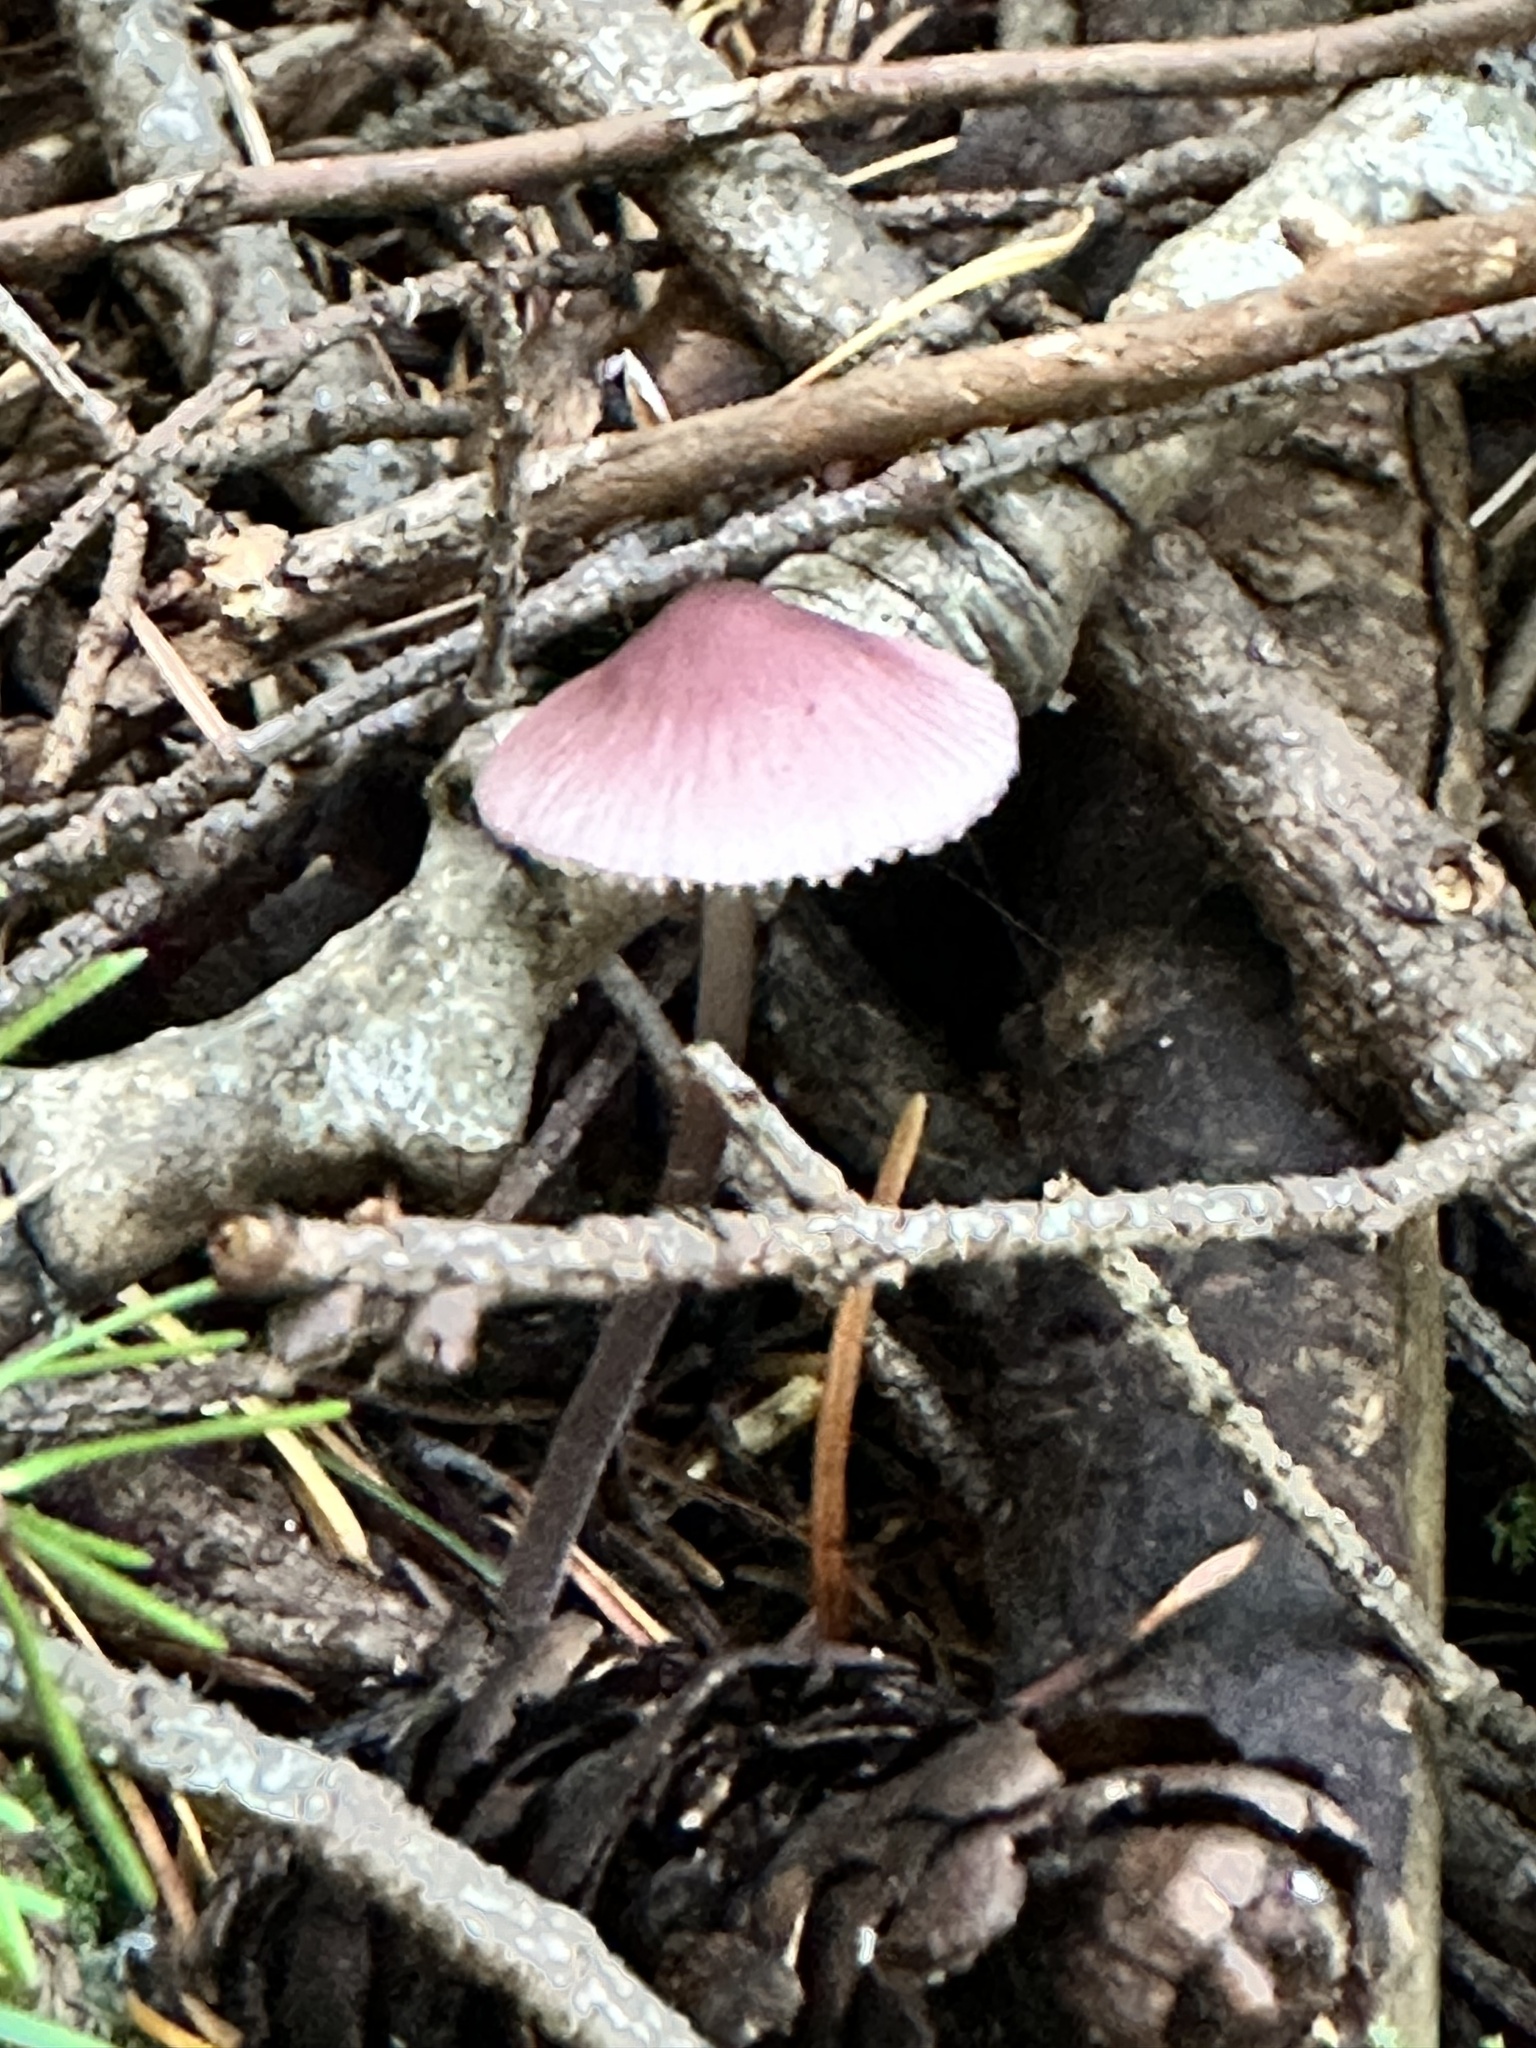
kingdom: Fungi
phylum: Basidiomycota
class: Agaricomycetes
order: Agaricales
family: Mycenaceae
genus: Mycena
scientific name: Mycena purpureofusca
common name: Purple edge bonnet
